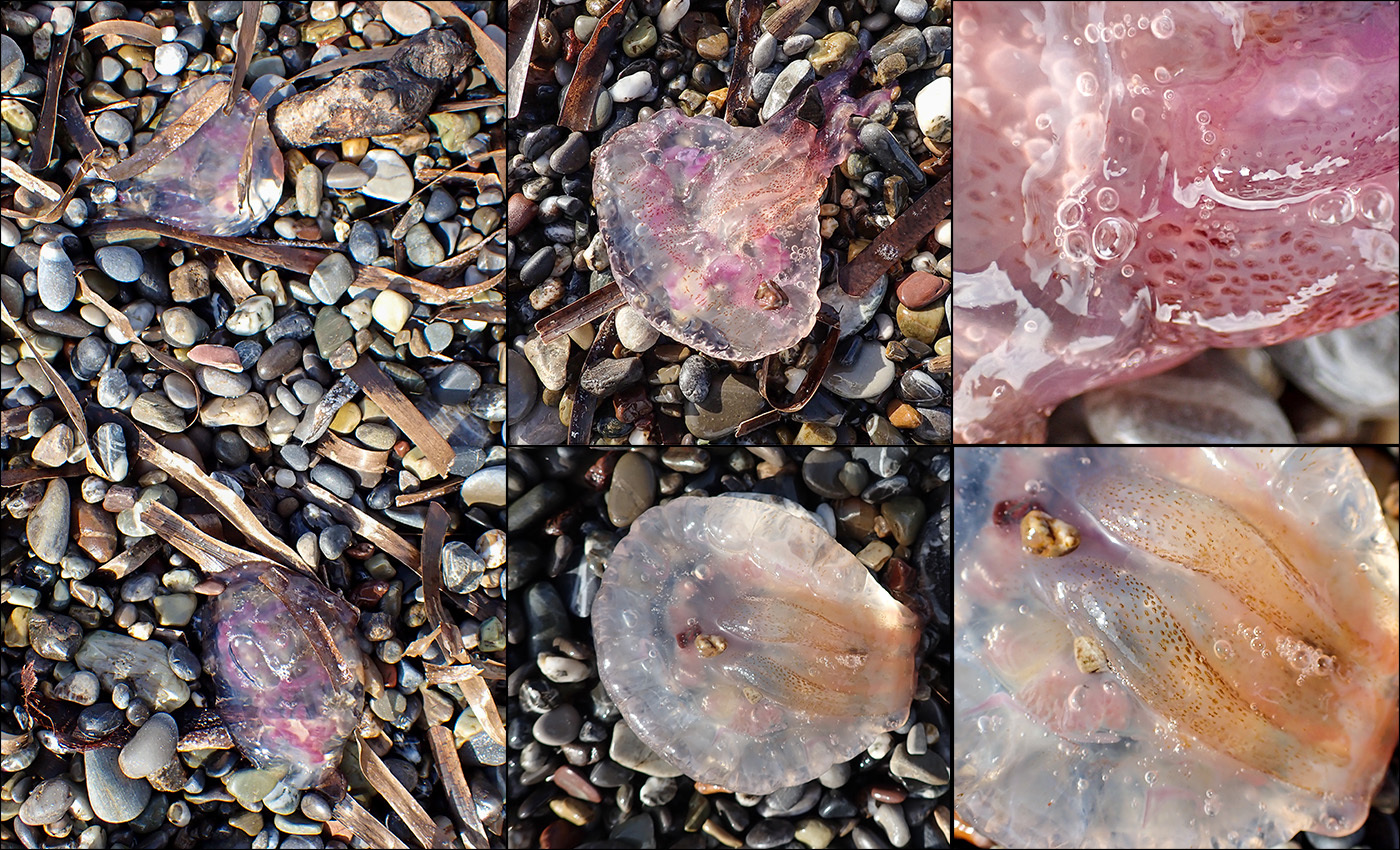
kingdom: Animalia
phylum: Cnidaria
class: Scyphozoa
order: Semaeostomeae
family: Pelagiidae
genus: Pelagia
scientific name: Pelagia noctiluca
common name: Mauve stinger
